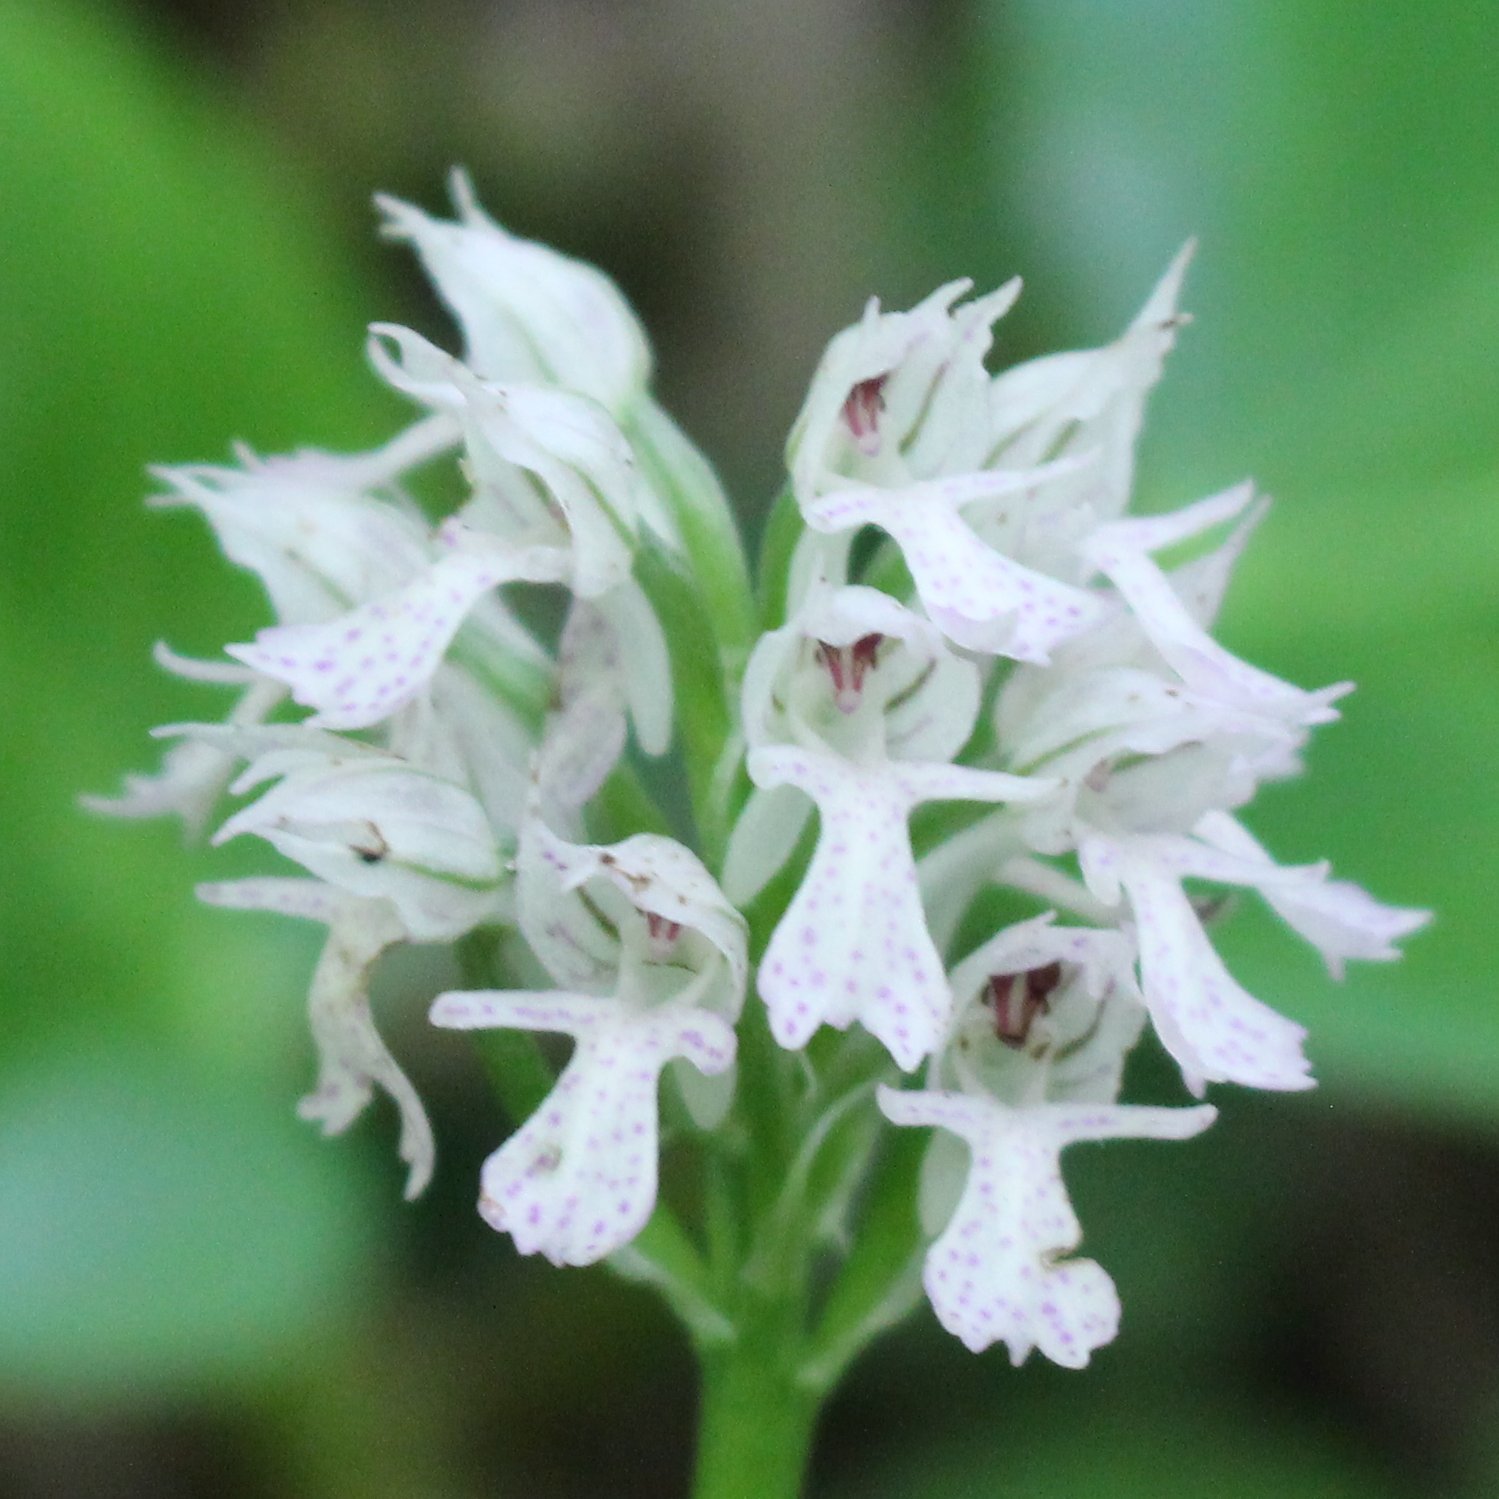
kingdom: Plantae
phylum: Tracheophyta
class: Liliopsida
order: Asparagales
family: Orchidaceae
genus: Neotinea
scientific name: Neotinea tridentata
